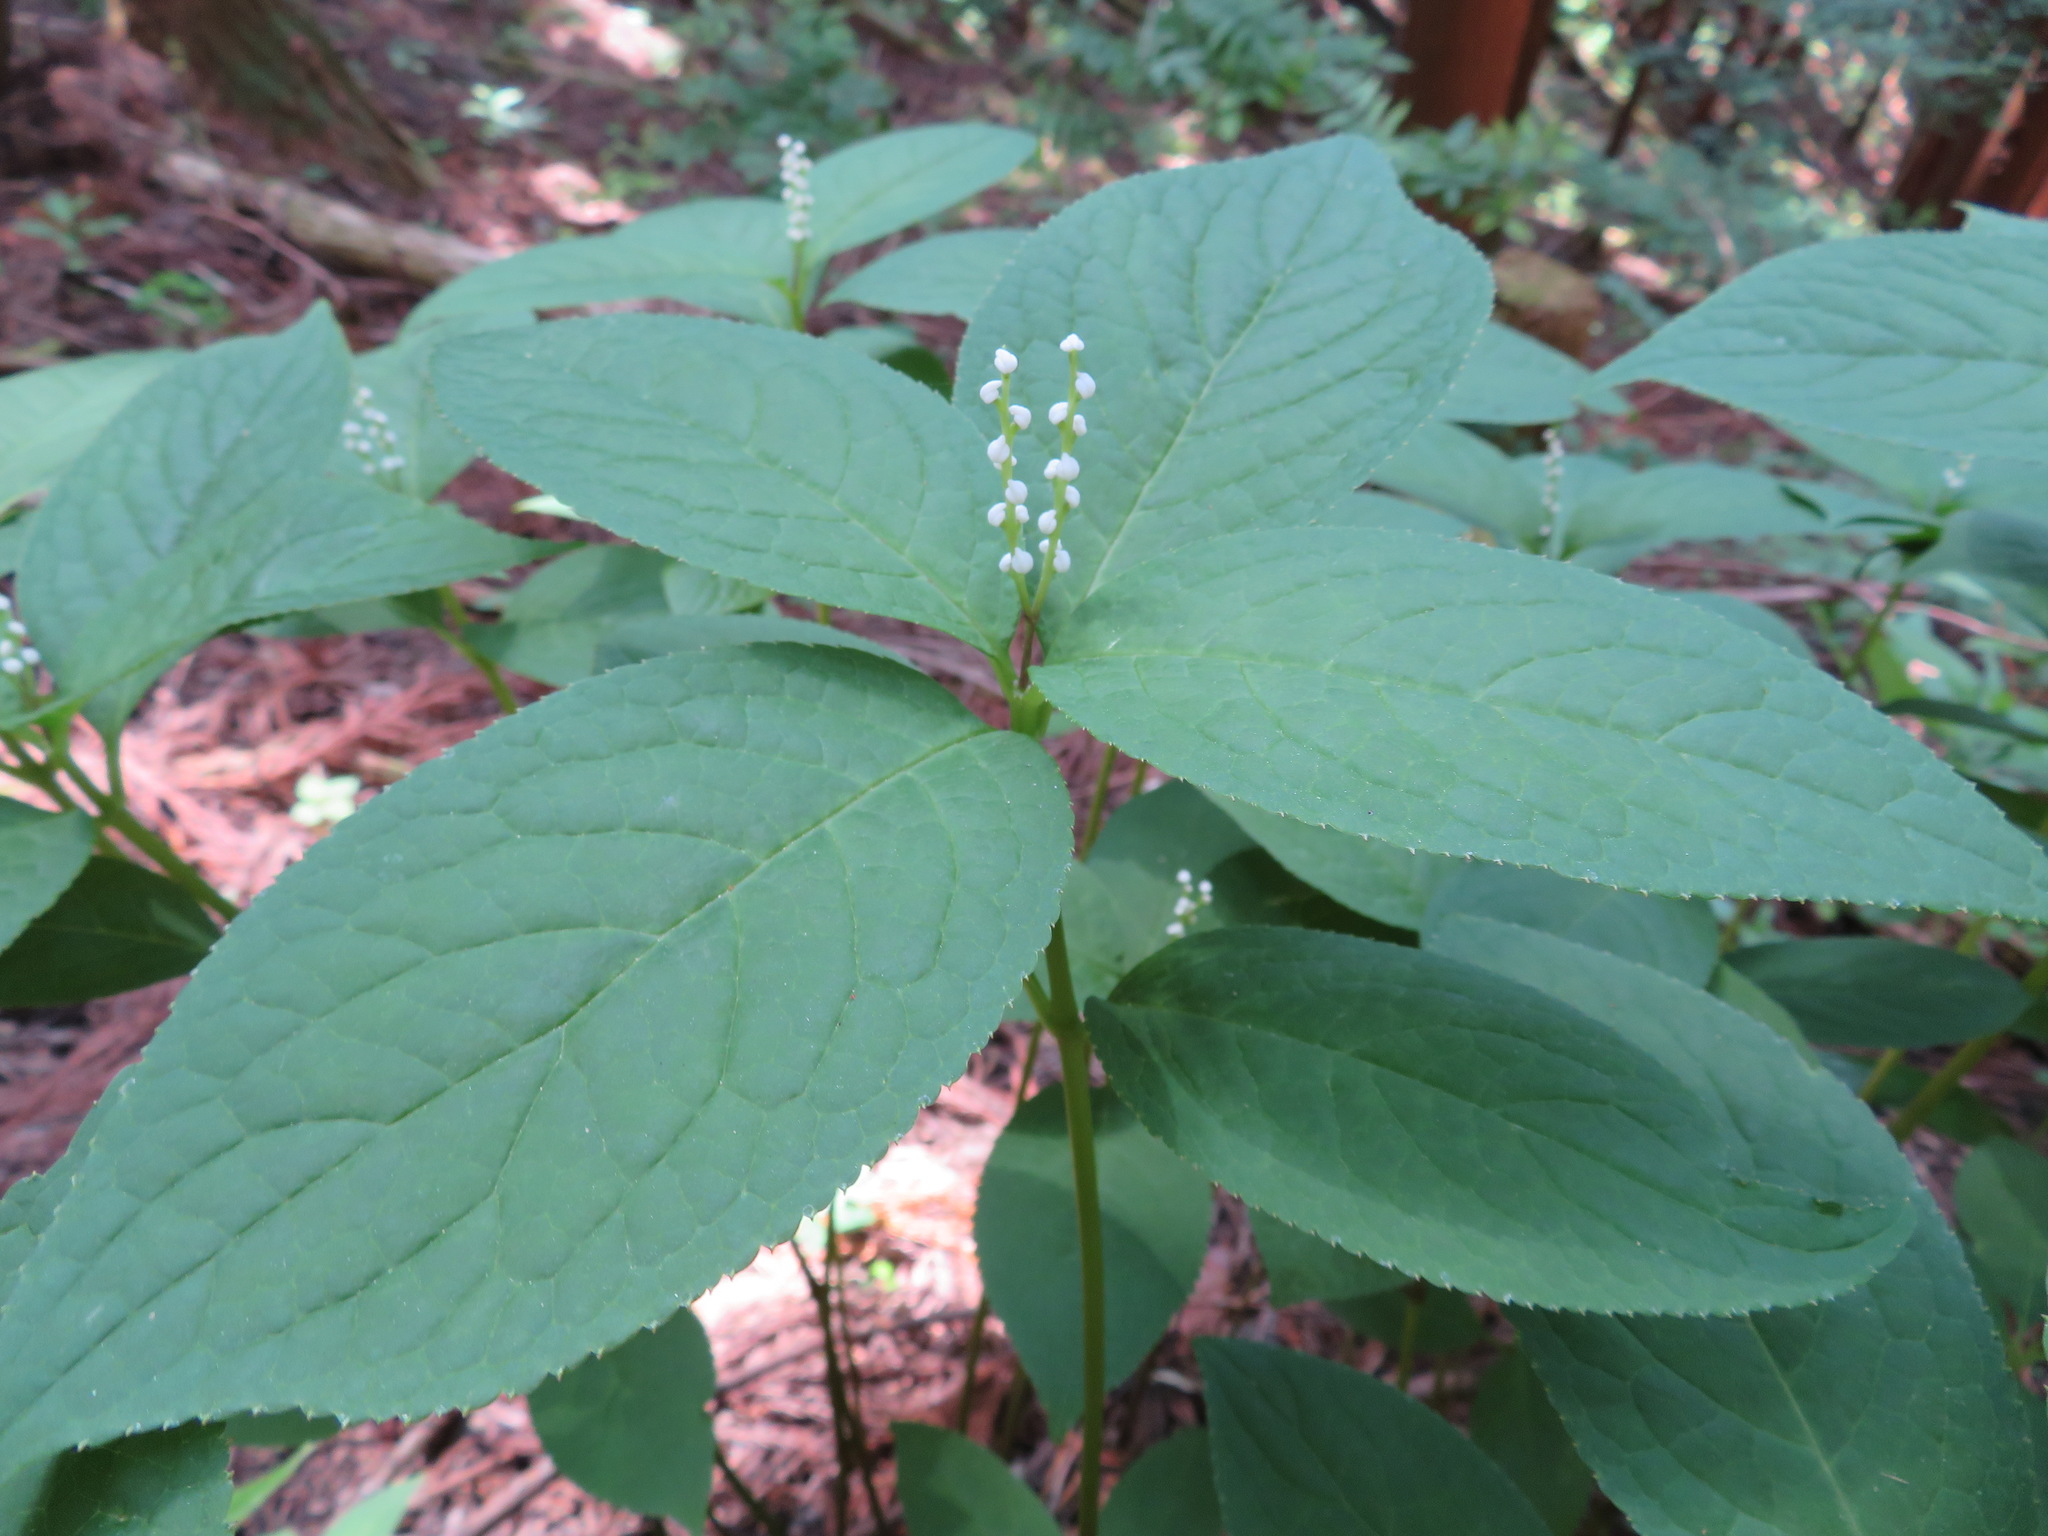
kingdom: Plantae
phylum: Tracheophyta
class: Magnoliopsida
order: Chloranthales
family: Chloranthaceae
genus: Chloranthus
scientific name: Chloranthus serratus
